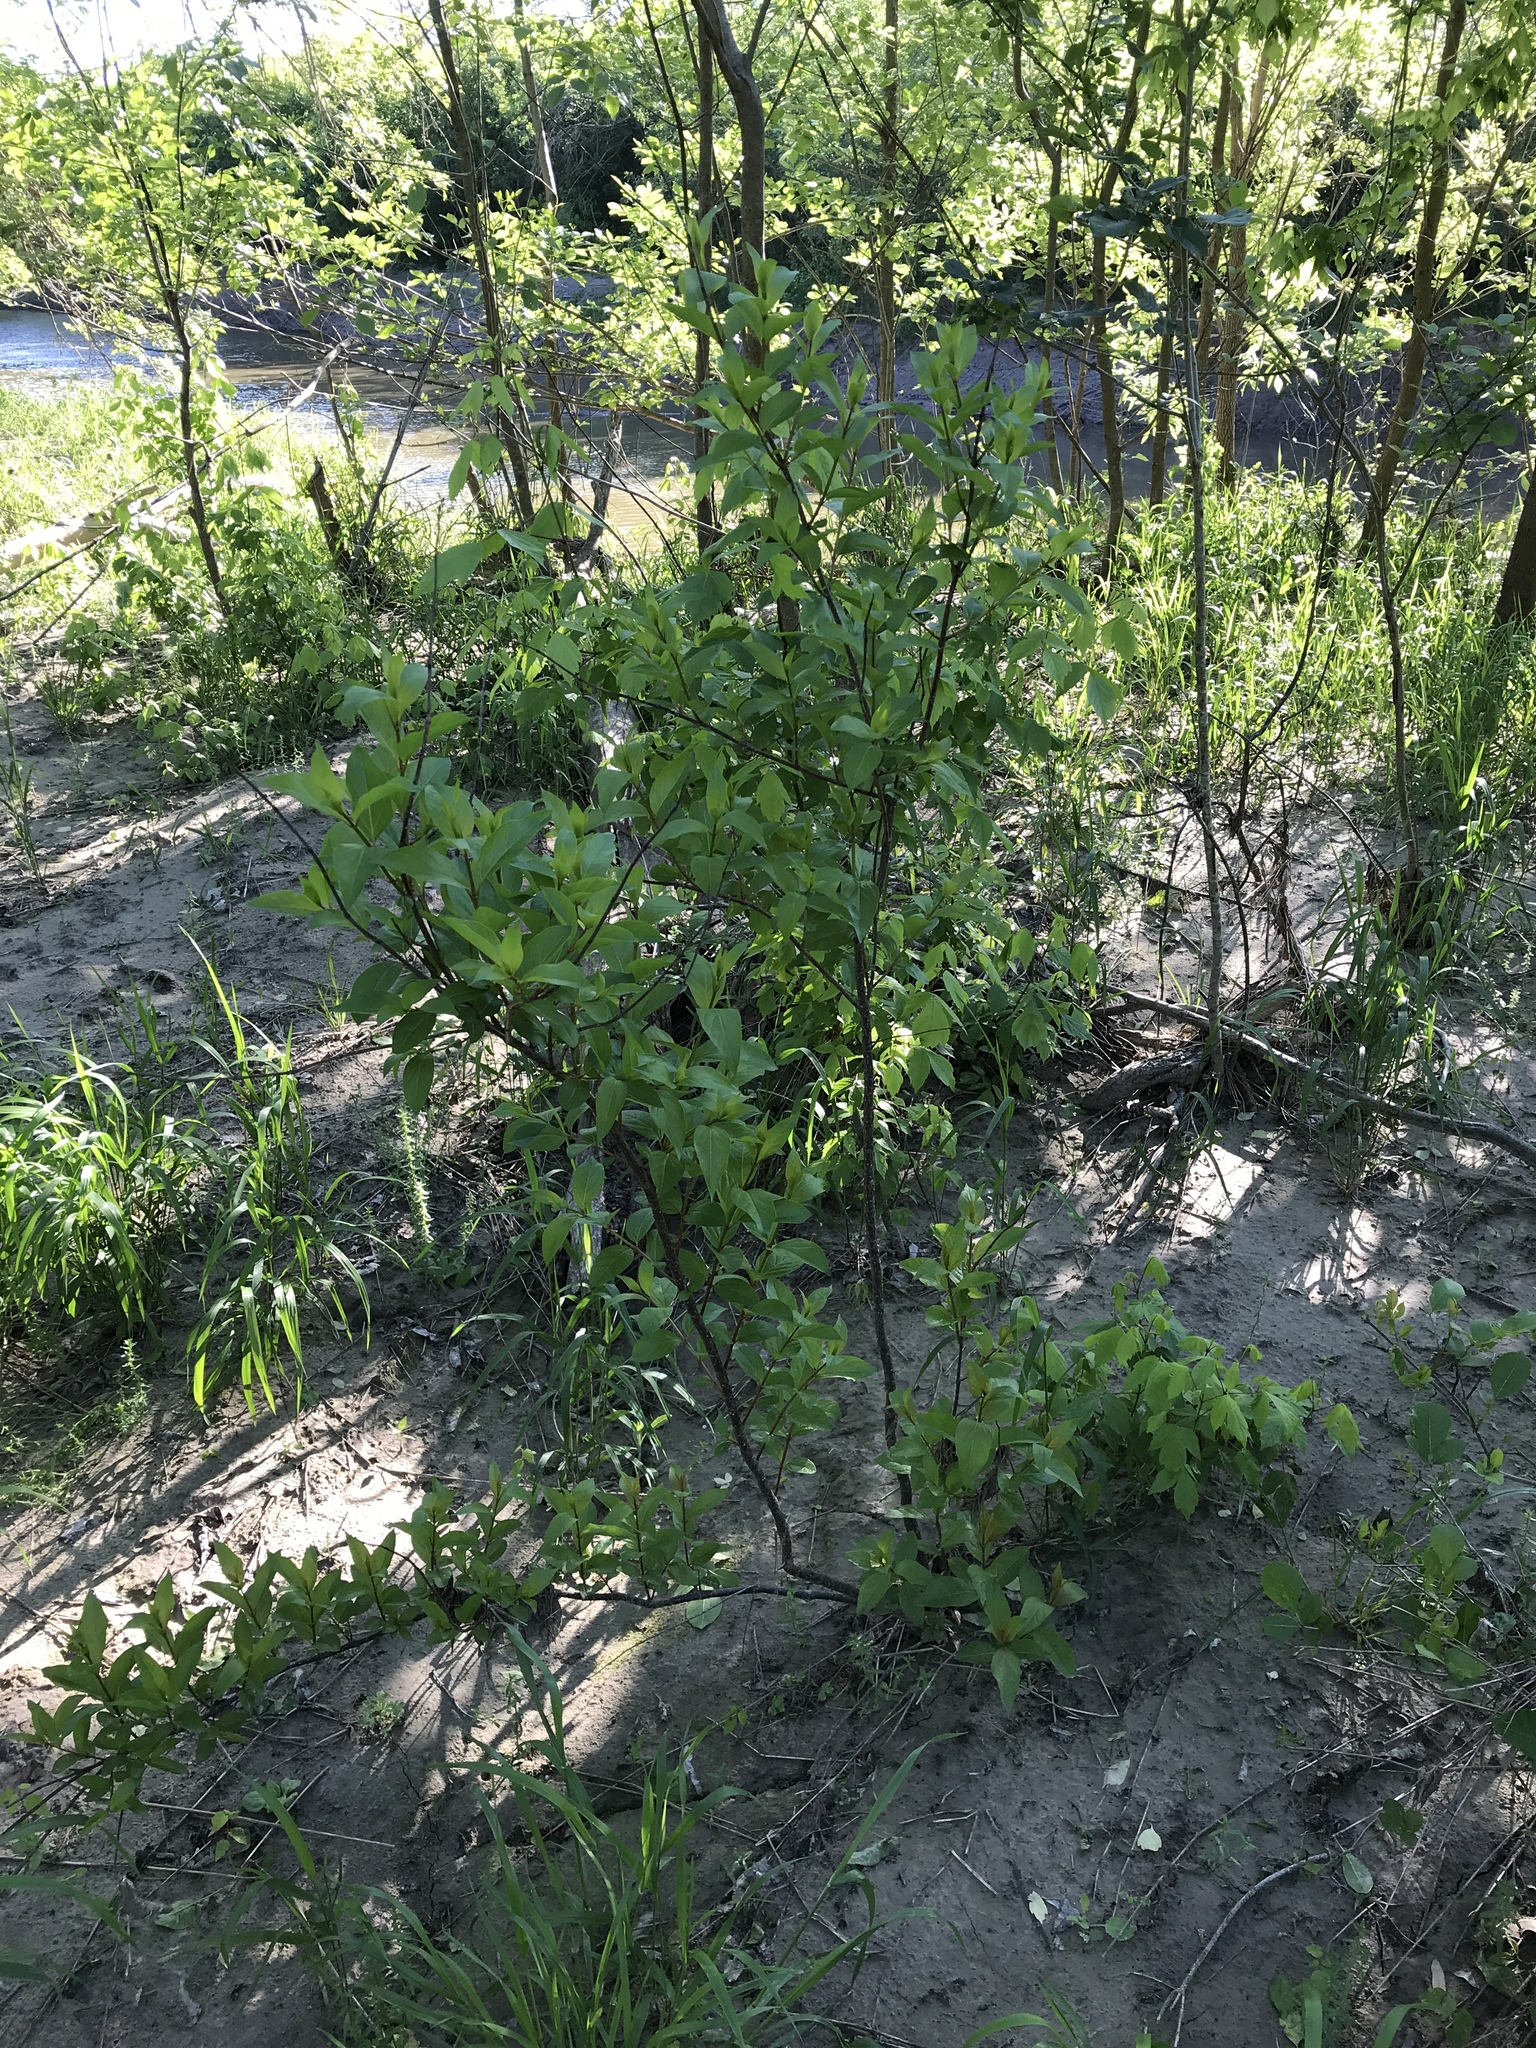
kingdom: Plantae
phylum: Tracheophyta
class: Magnoliopsida
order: Gentianales
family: Rubiaceae
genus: Cephalanthus
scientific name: Cephalanthus occidentalis
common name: Button-willow
